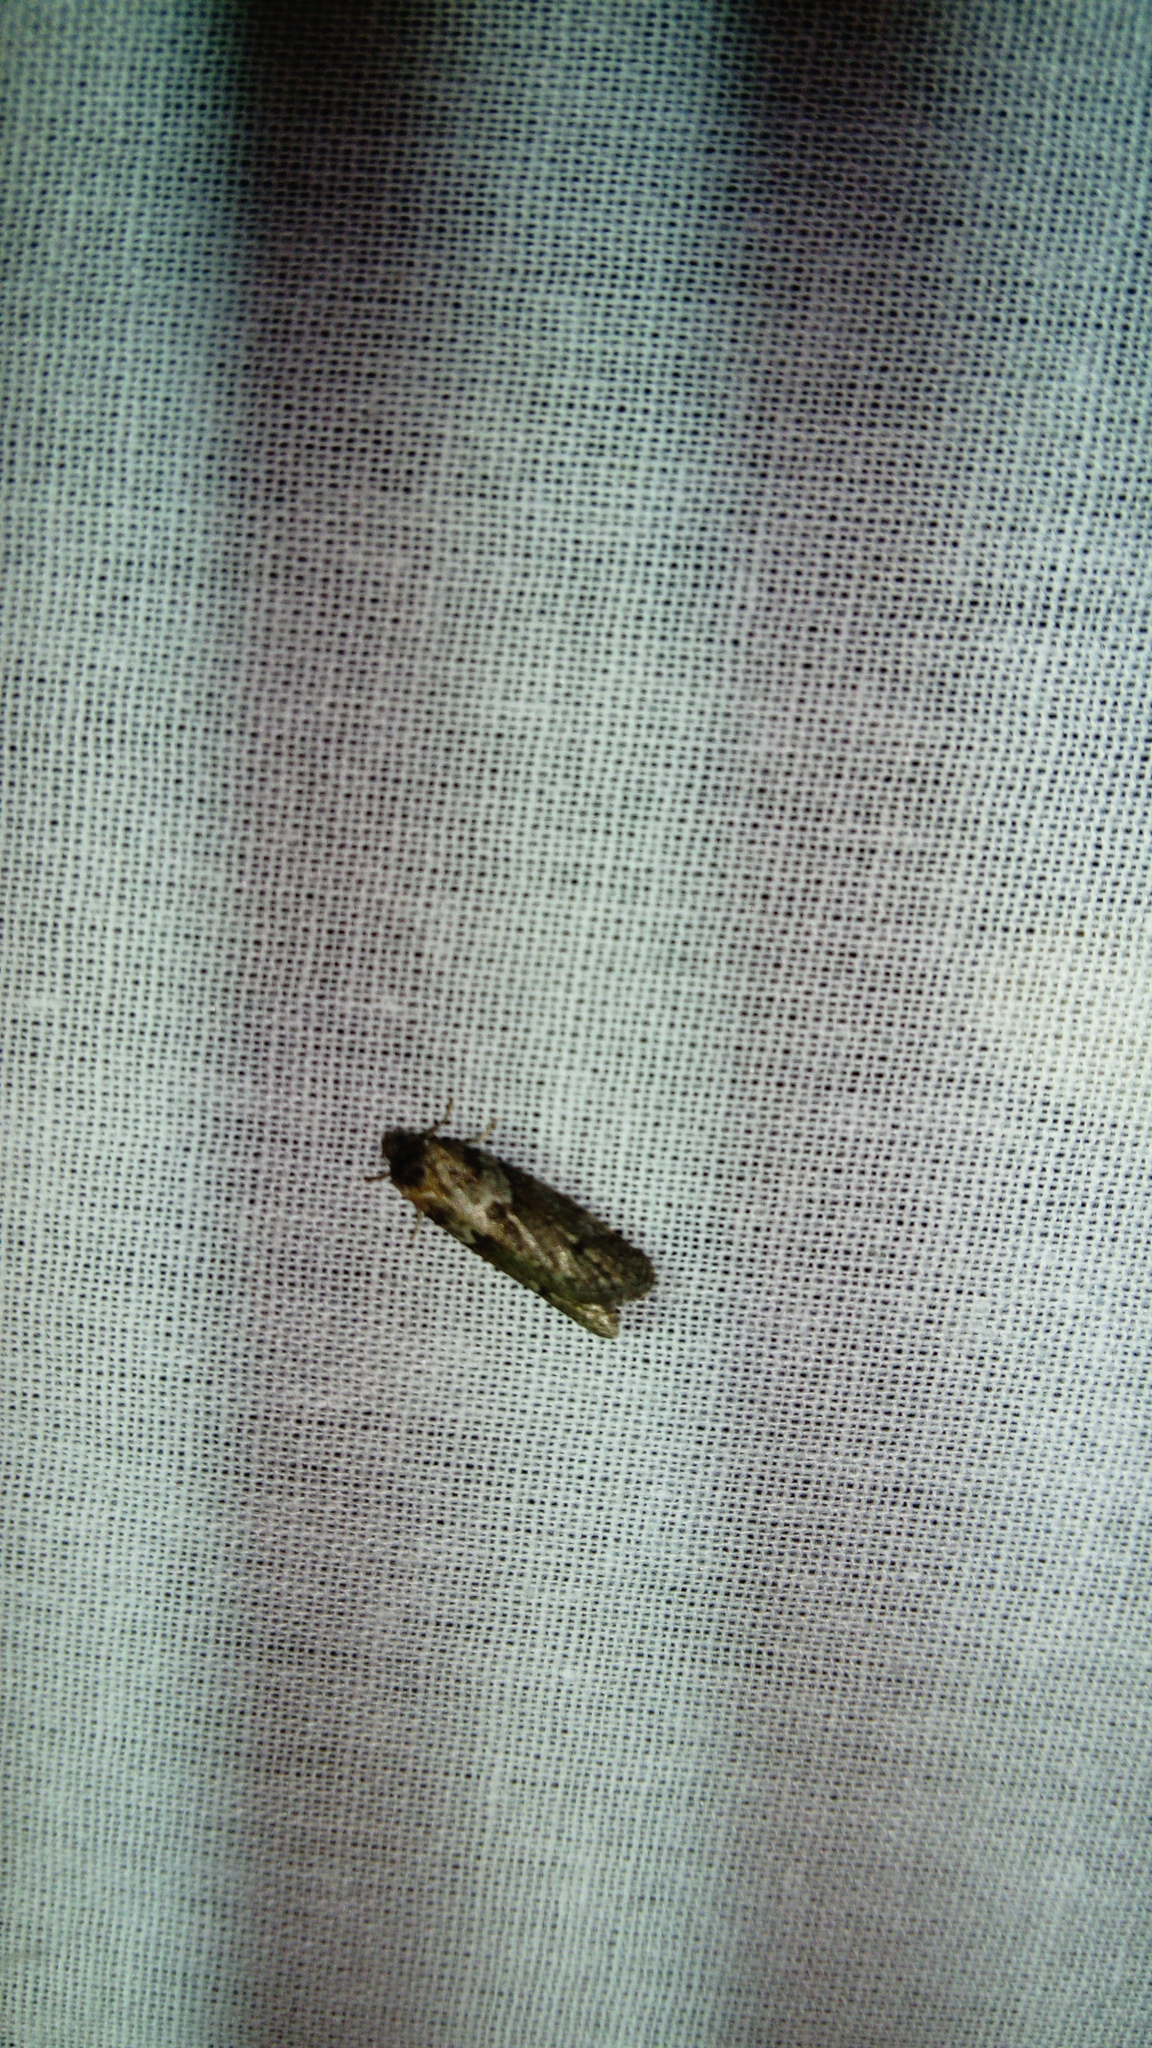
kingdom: Animalia
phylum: Arthropoda
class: Insecta
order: Lepidoptera
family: Tortricidae
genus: Tortricodes
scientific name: Tortricodes alternella
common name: Winter shade
